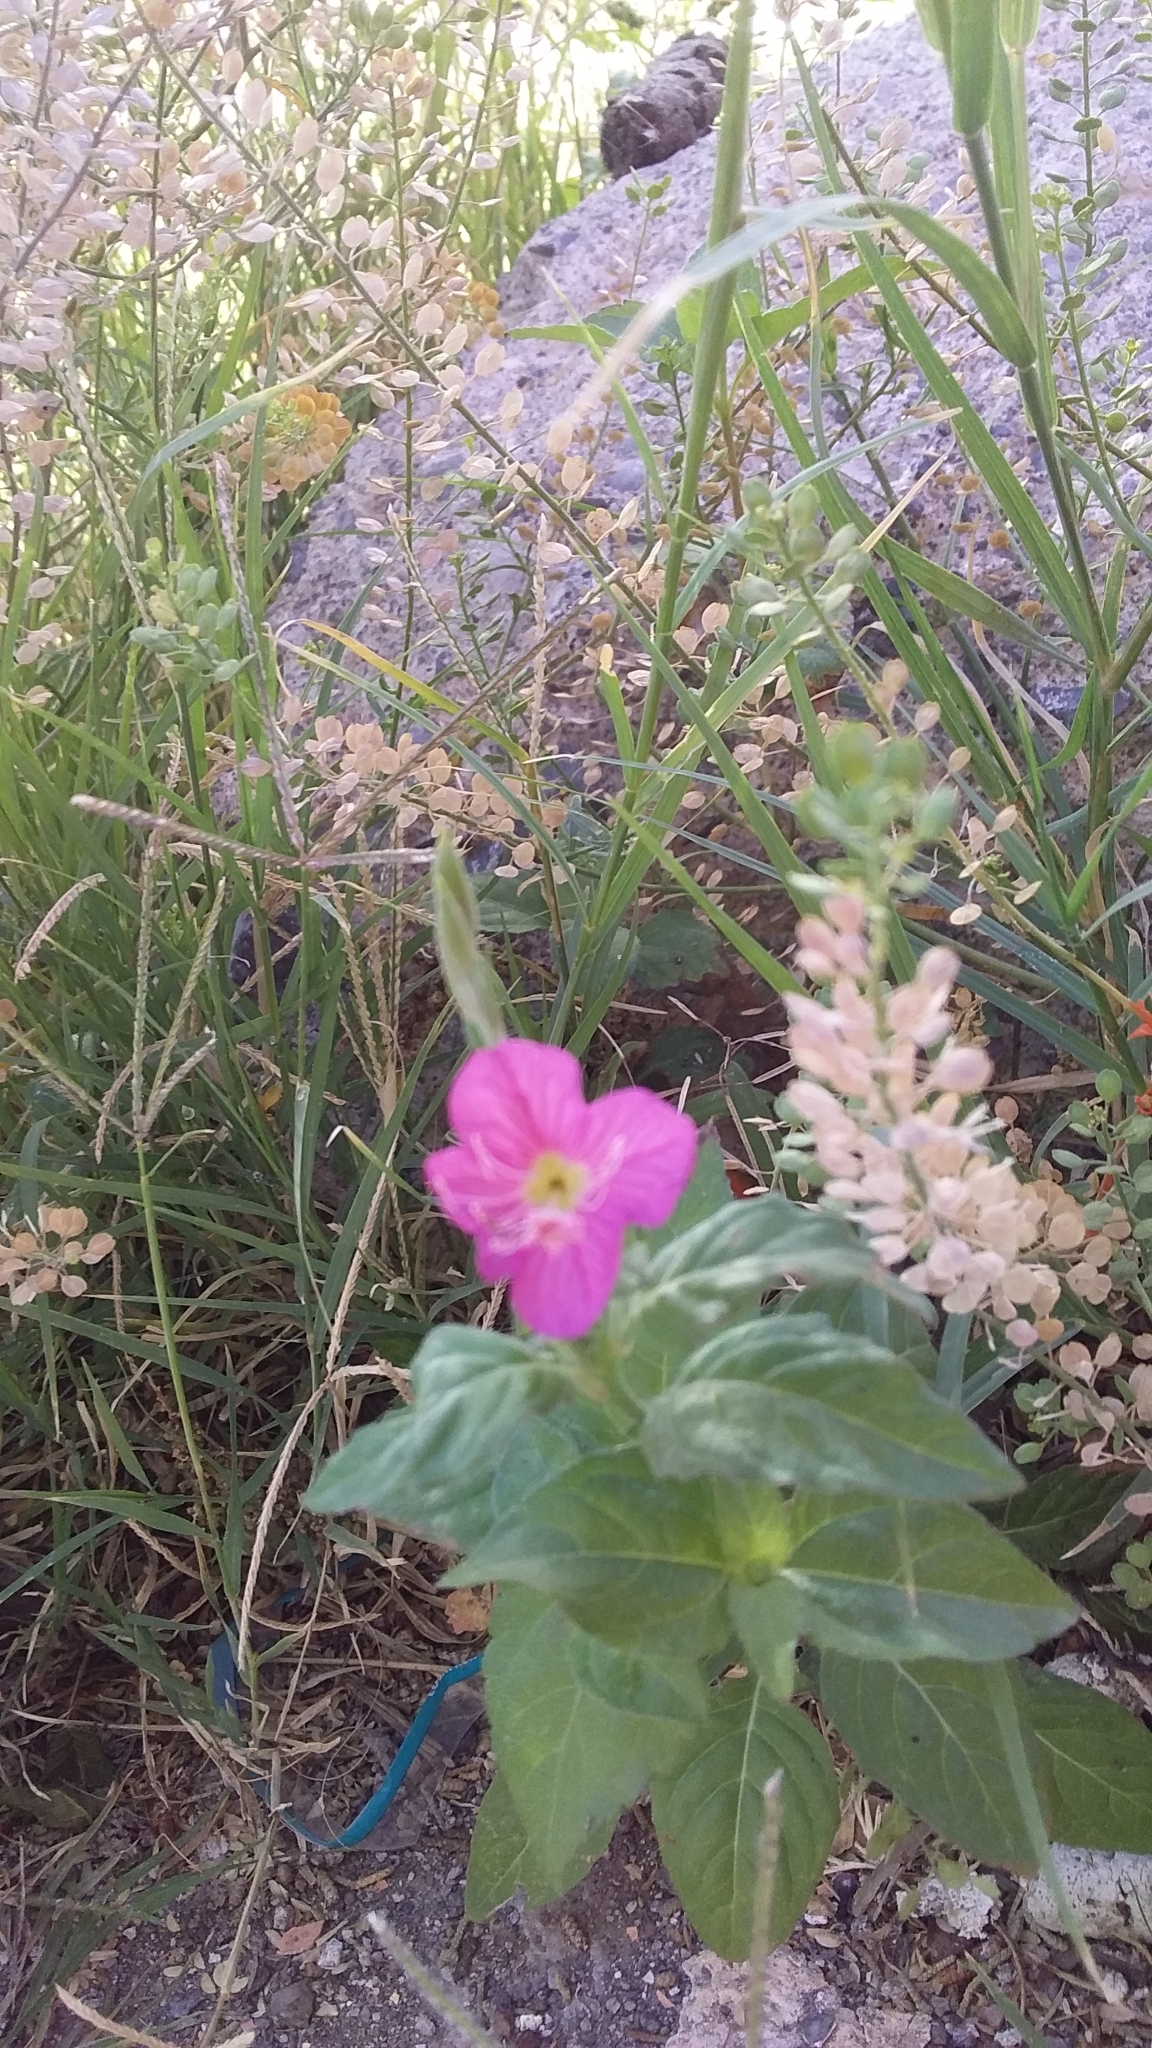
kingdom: Plantae
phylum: Tracheophyta
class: Magnoliopsida
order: Myrtales
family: Onagraceae
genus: Oenothera
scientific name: Oenothera rosea
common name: Rosy evening-primrose
